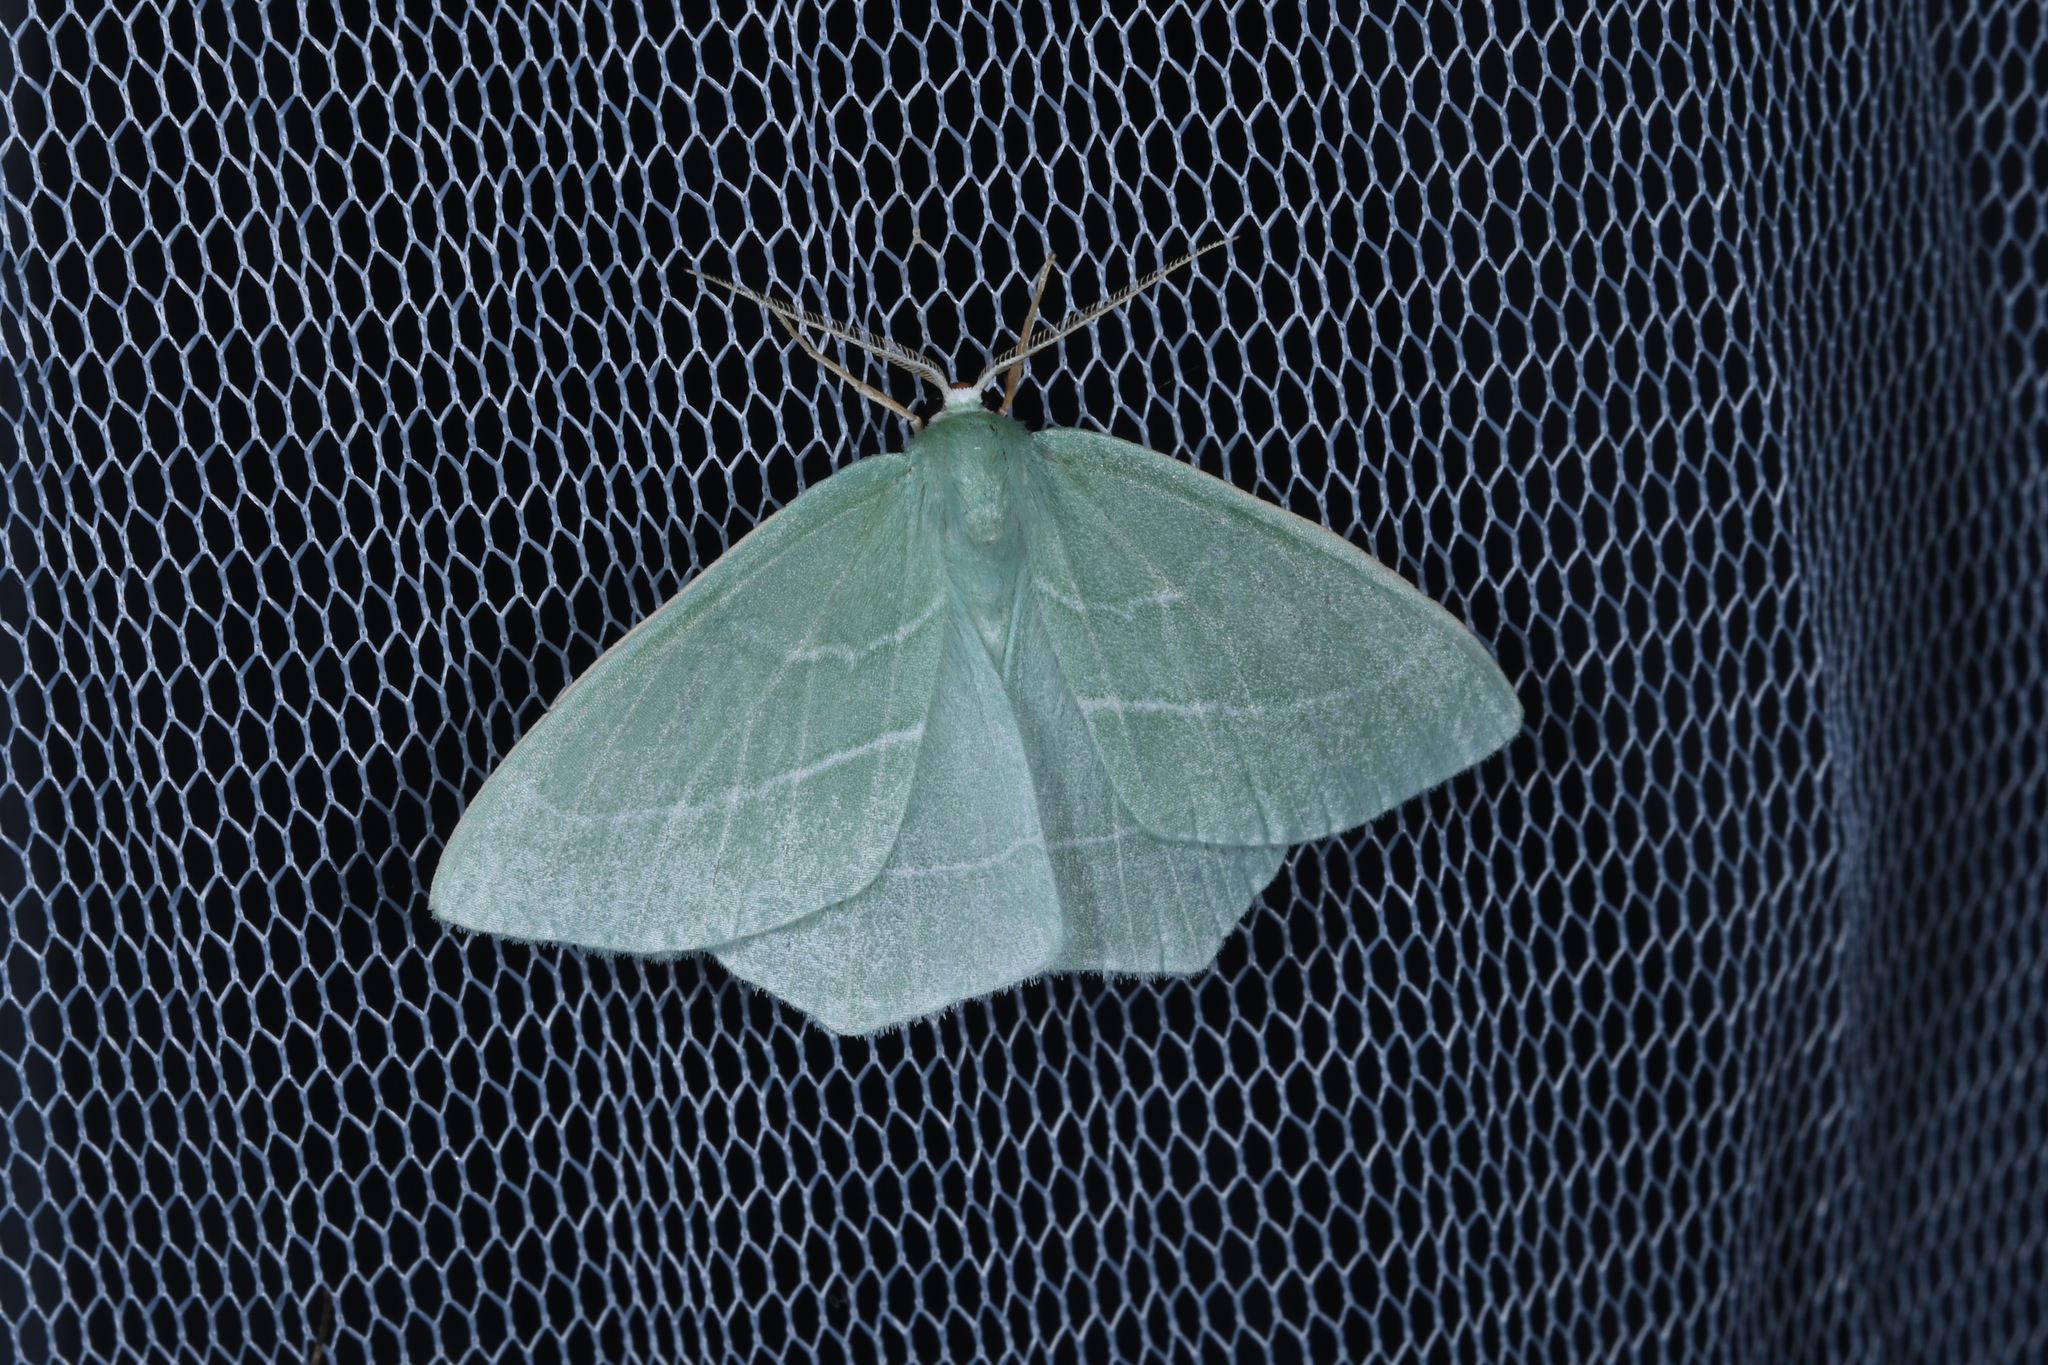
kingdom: Animalia
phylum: Arthropoda
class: Insecta
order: Lepidoptera
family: Geometridae
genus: Hemistola
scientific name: Hemistola chrysoprasaria
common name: Small emerald
